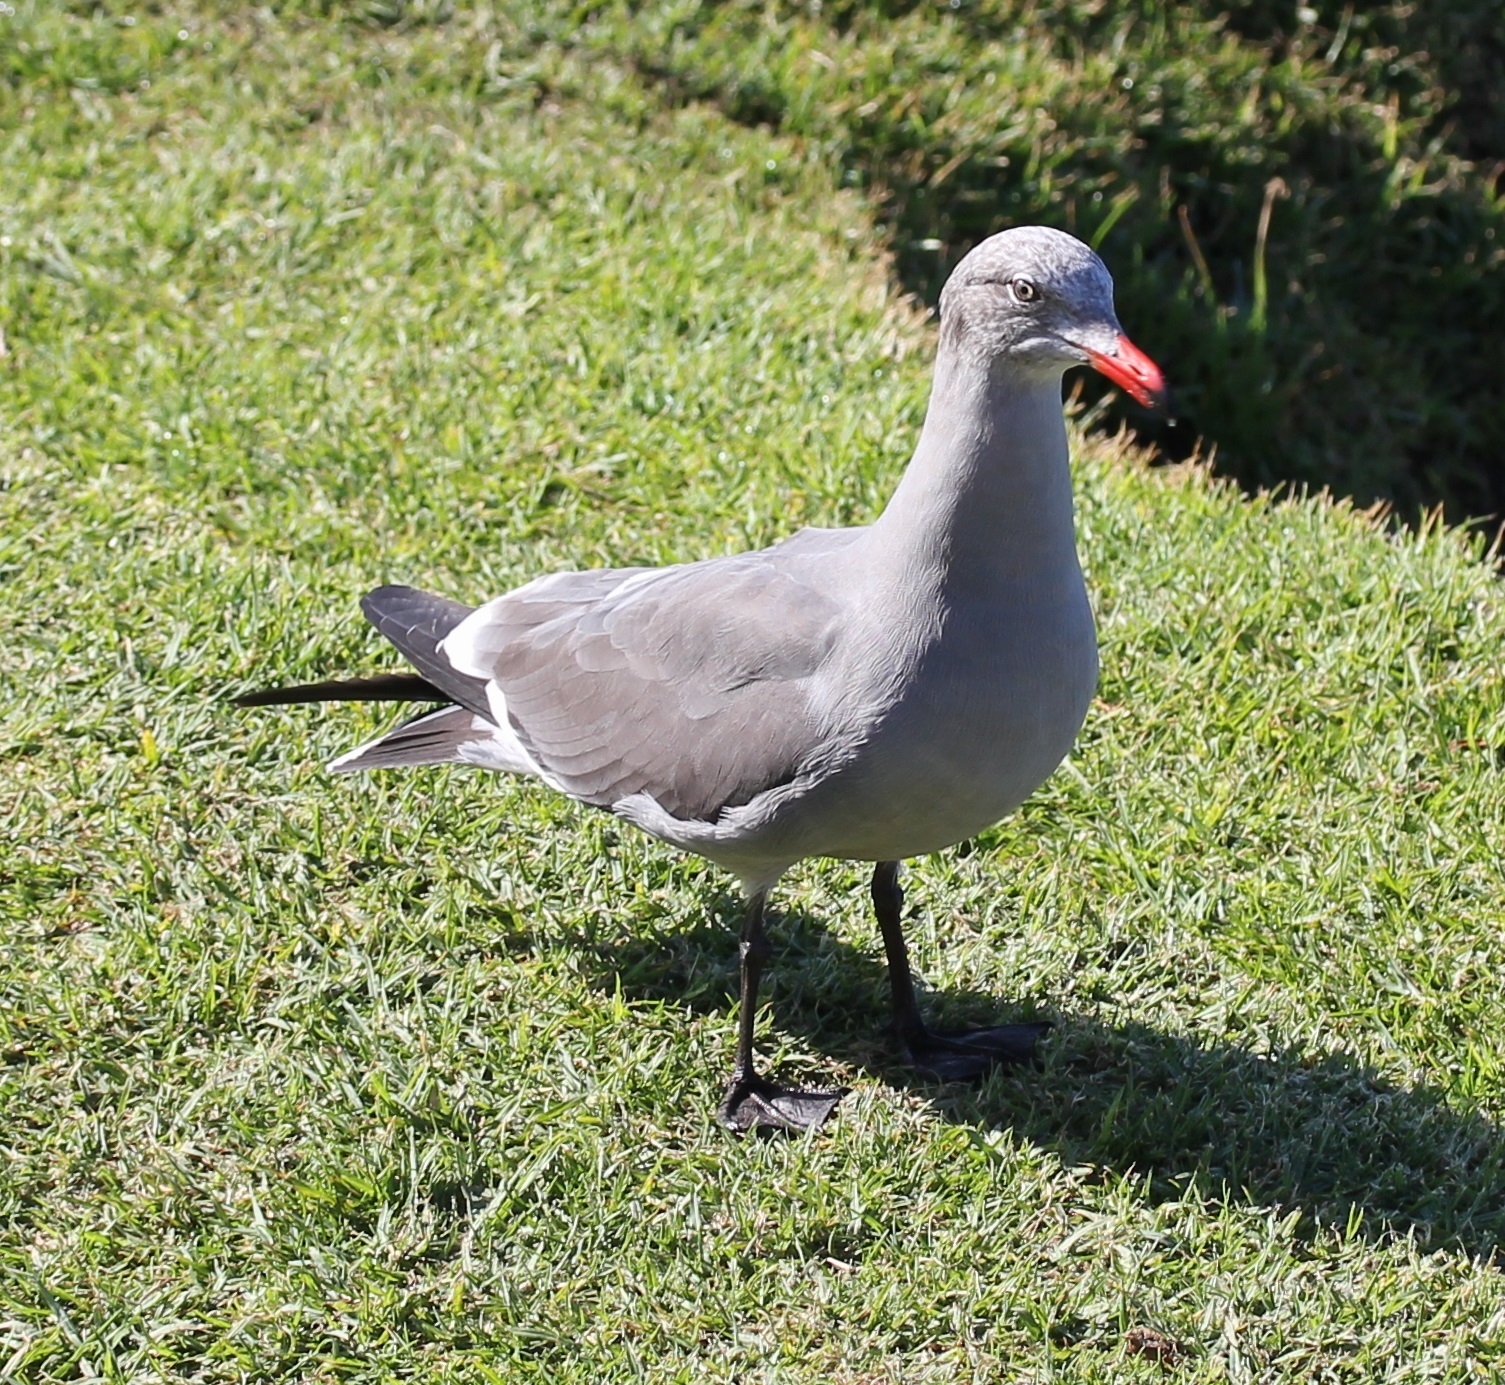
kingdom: Animalia
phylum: Chordata
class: Aves
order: Charadriiformes
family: Laridae
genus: Larus
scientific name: Larus heermanni
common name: Heermann's gull
